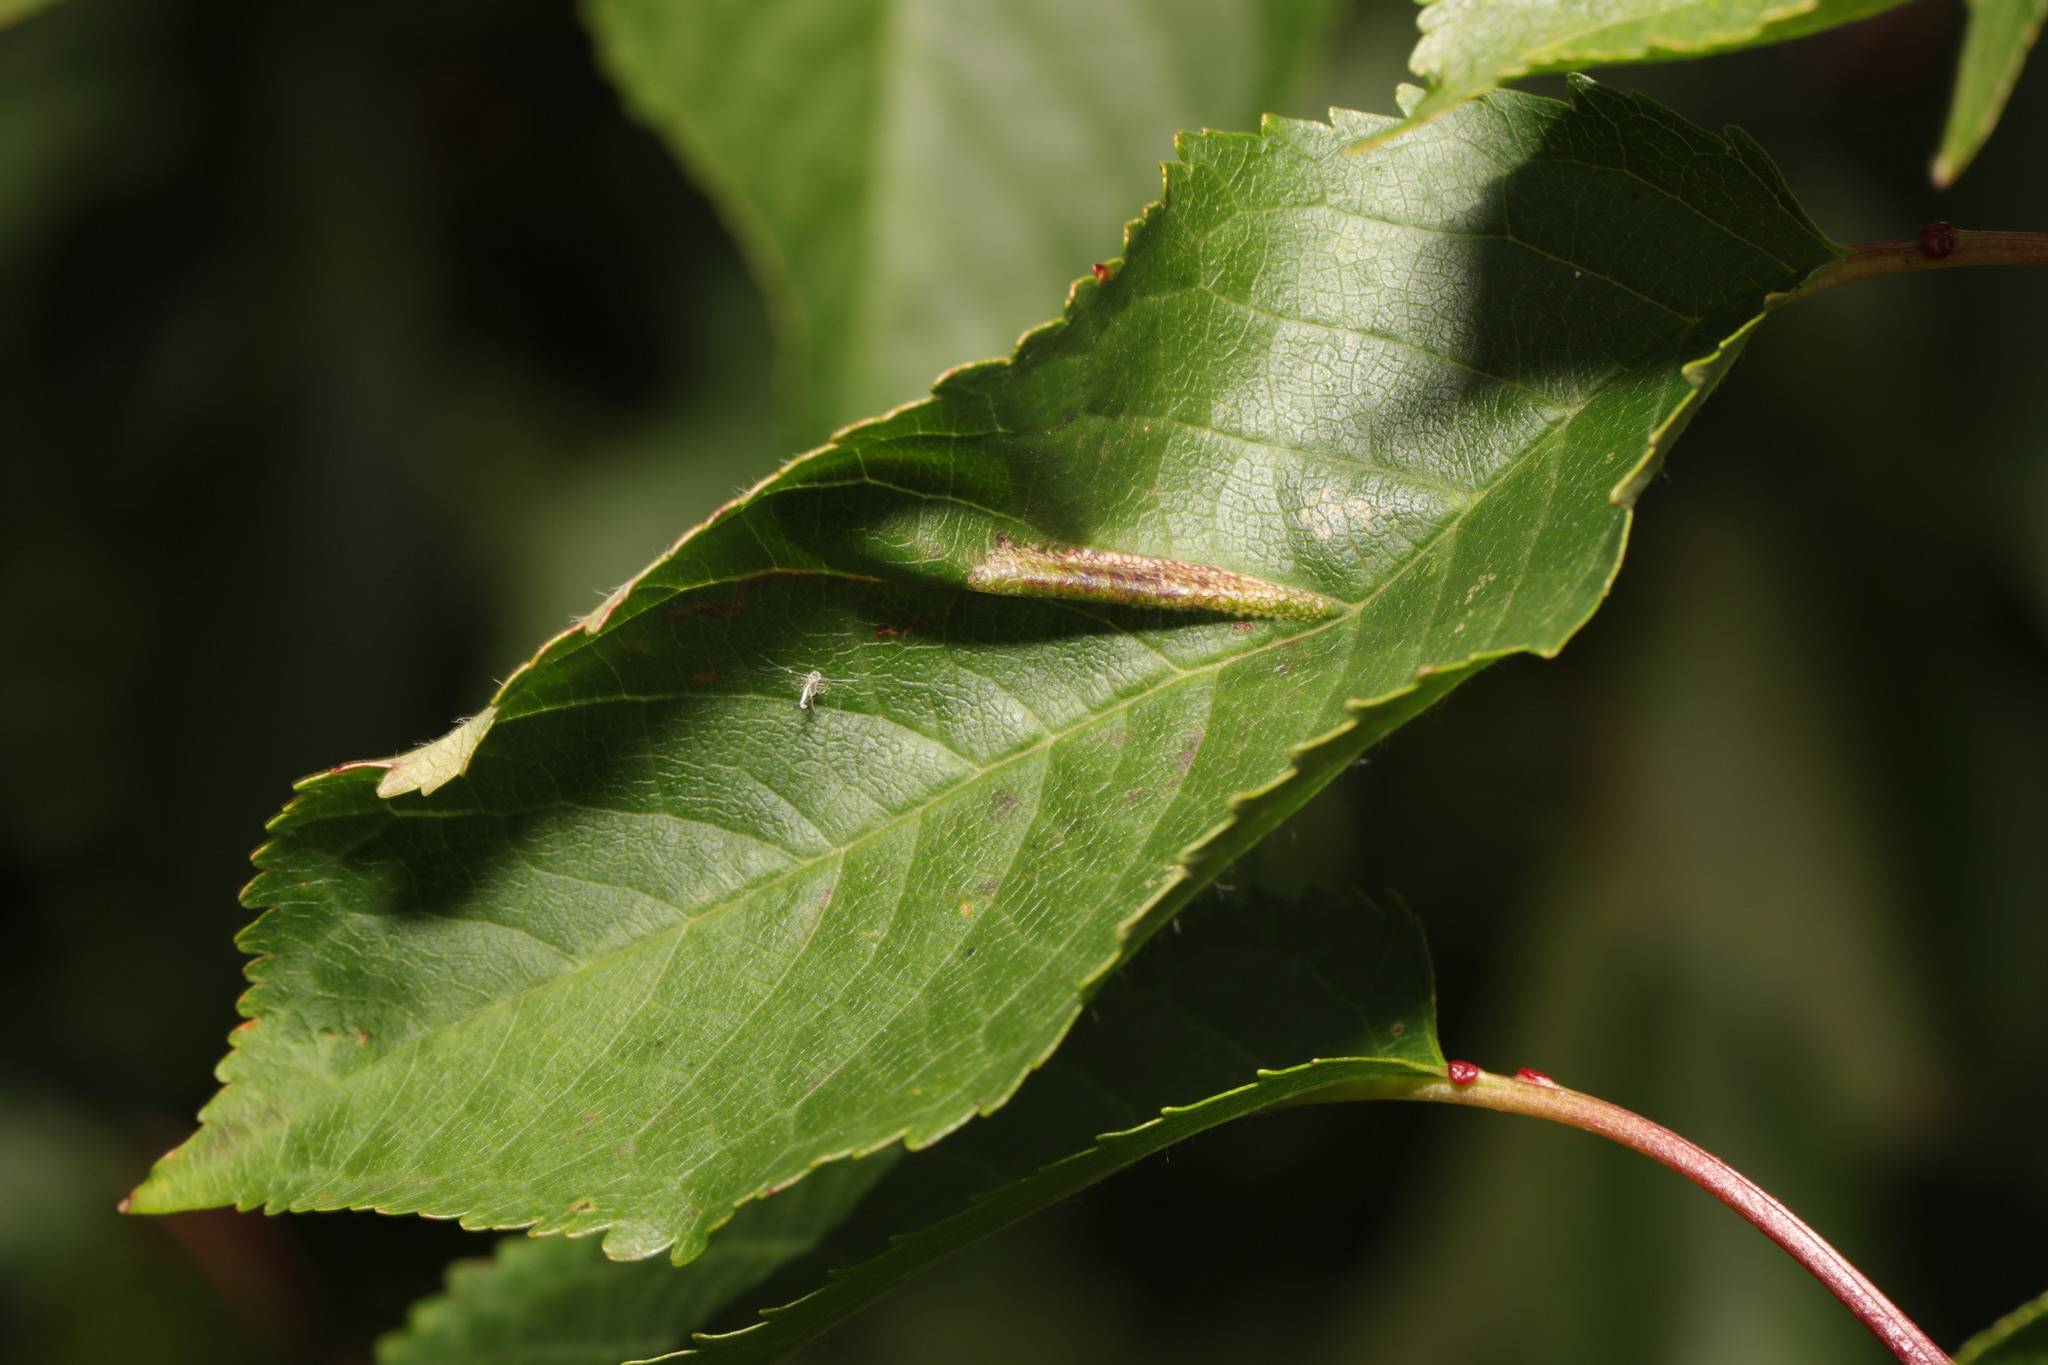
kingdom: Animalia
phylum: Arthropoda
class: Insecta
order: Lepidoptera
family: Gracillariidae
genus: Phyllonorycter
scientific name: Phyllonorycter cerasicolella
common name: Cherry midget
